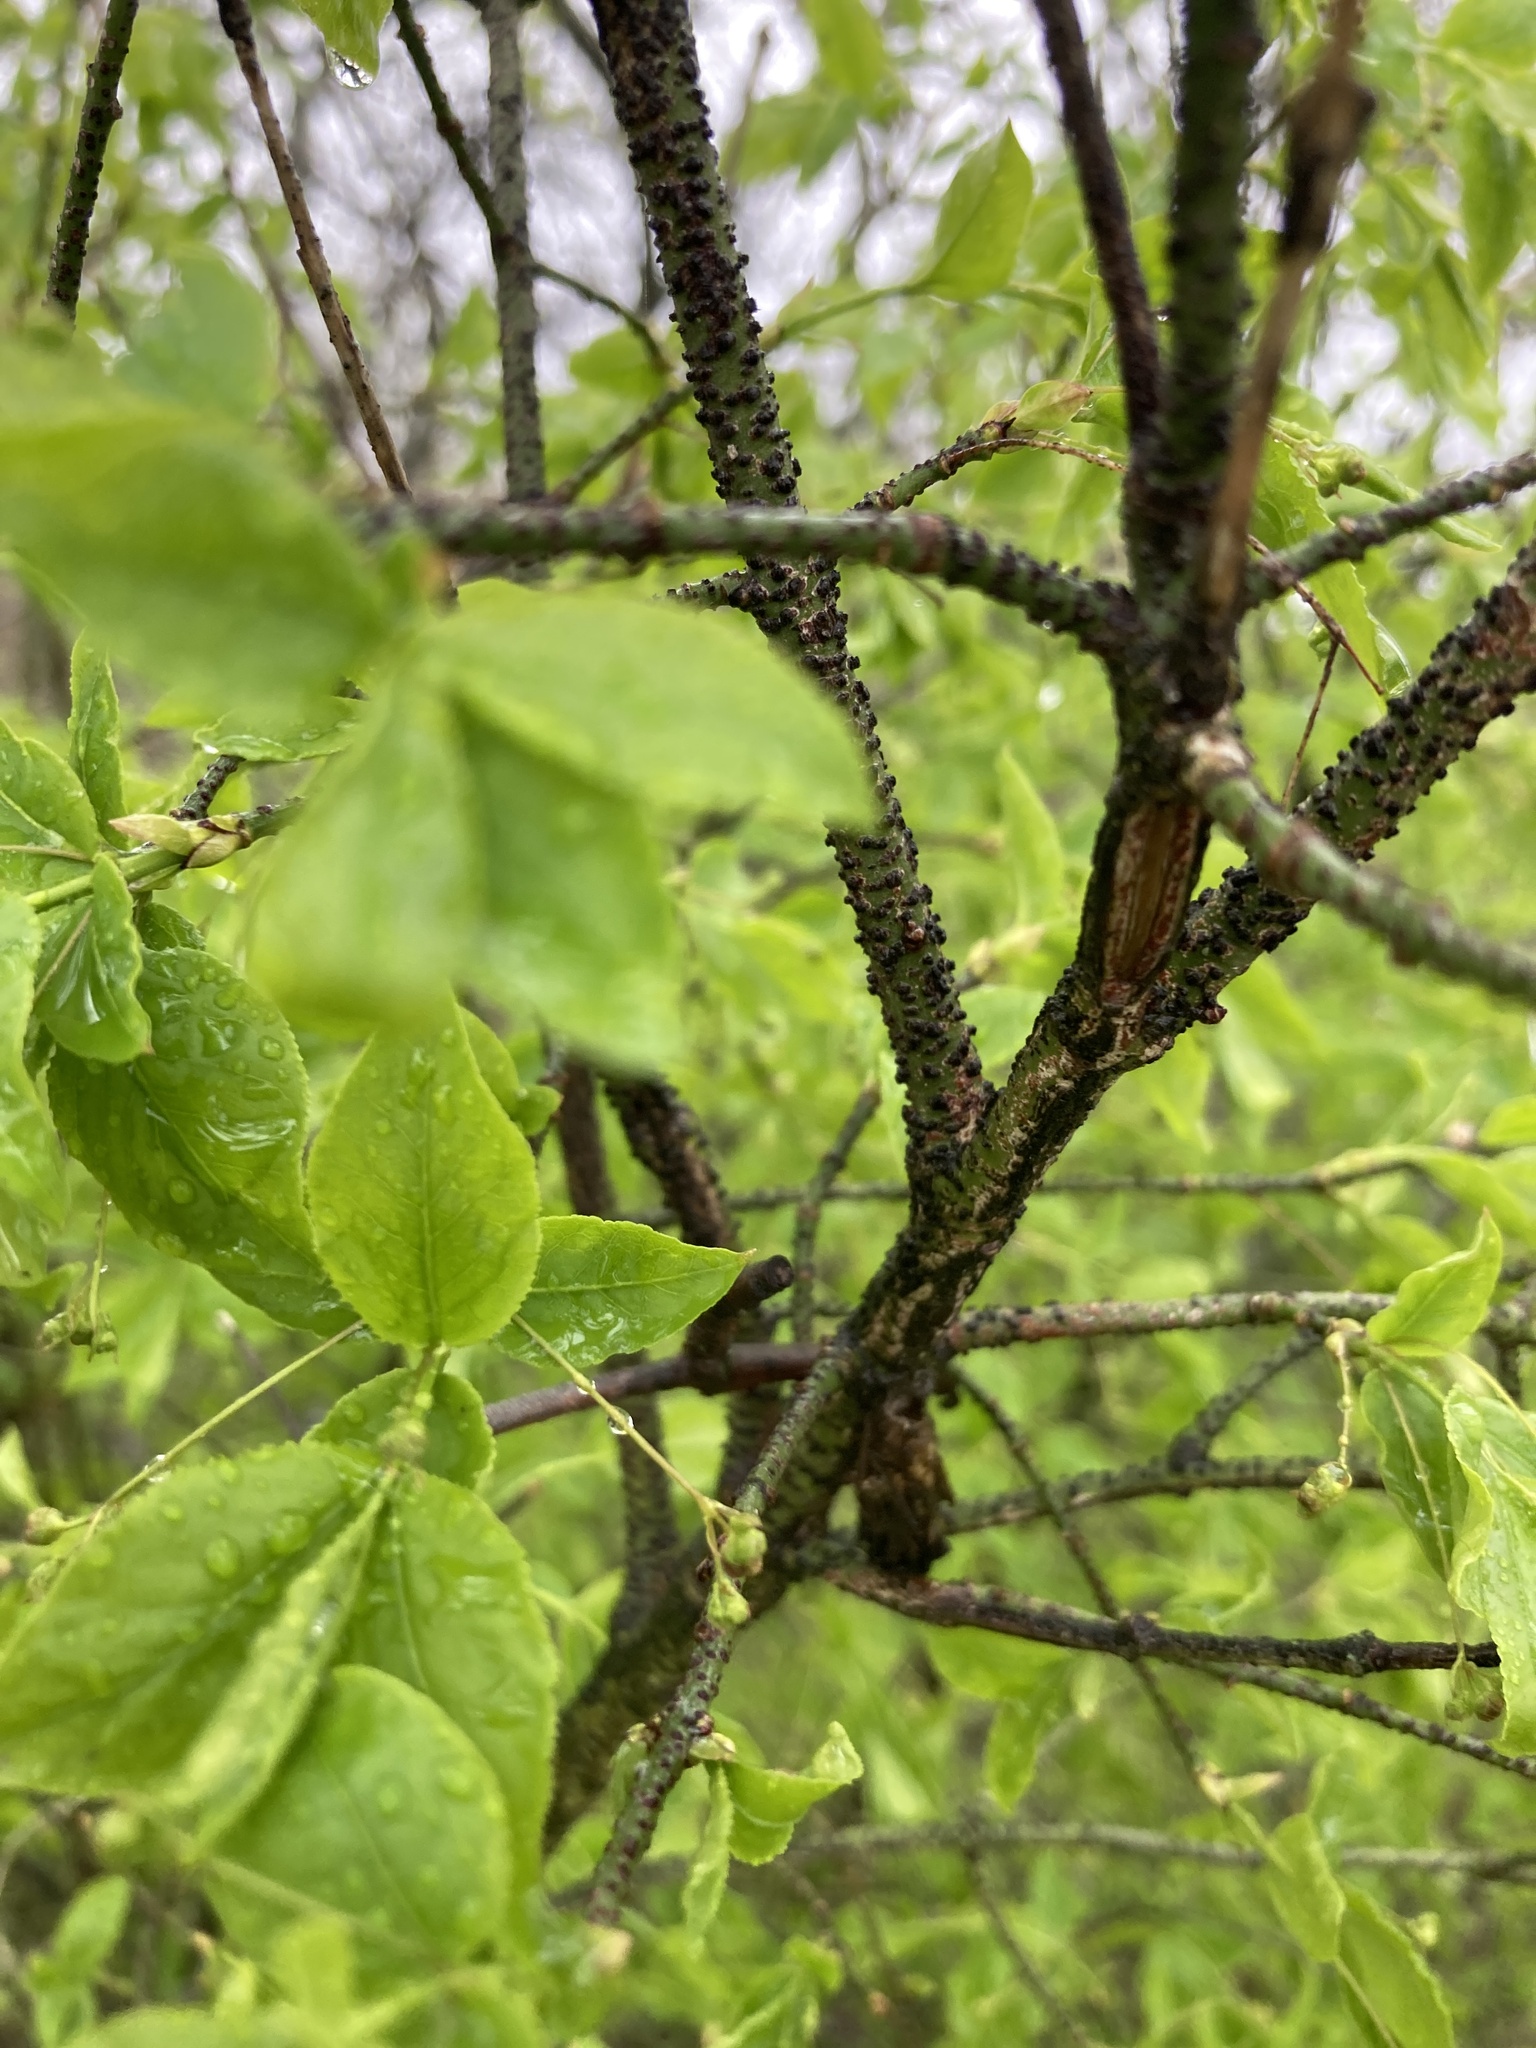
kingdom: Plantae
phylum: Tracheophyta
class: Magnoliopsida
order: Celastrales
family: Celastraceae
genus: Euonymus
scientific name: Euonymus verrucosus
